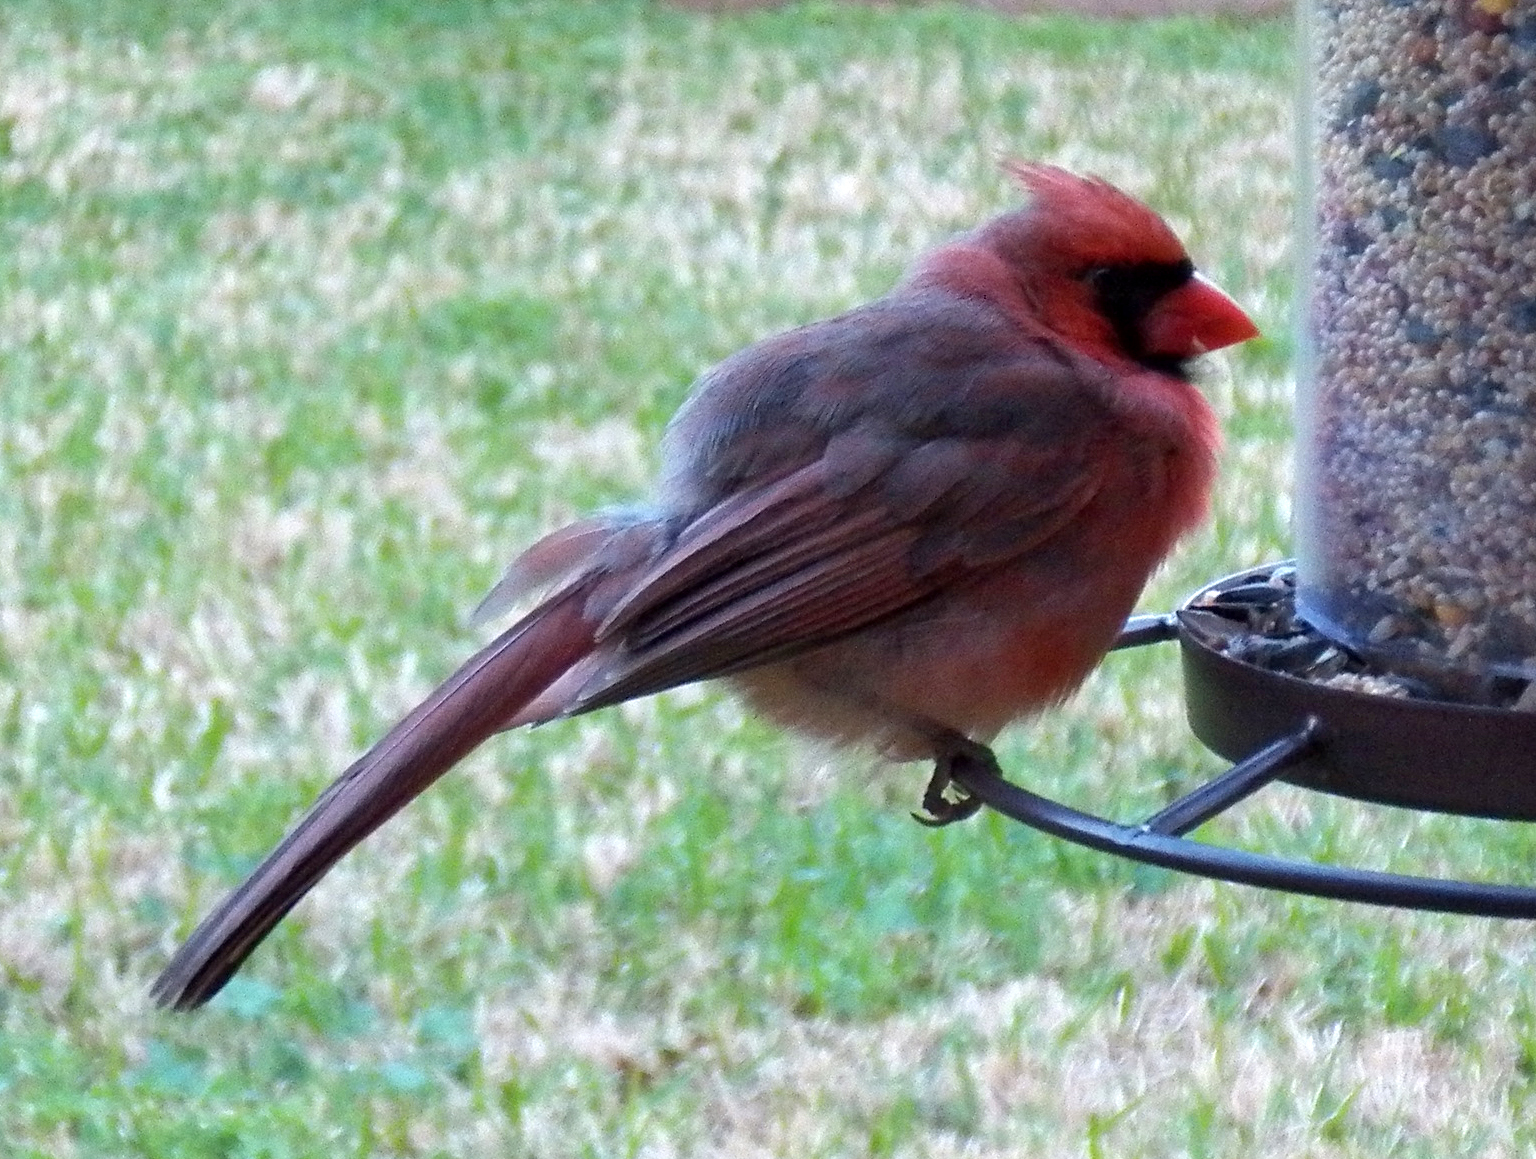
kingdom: Animalia
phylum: Chordata
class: Aves
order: Passeriformes
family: Cardinalidae
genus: Cardinalis
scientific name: Cardinalis cardinalis
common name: Northern cardinal
